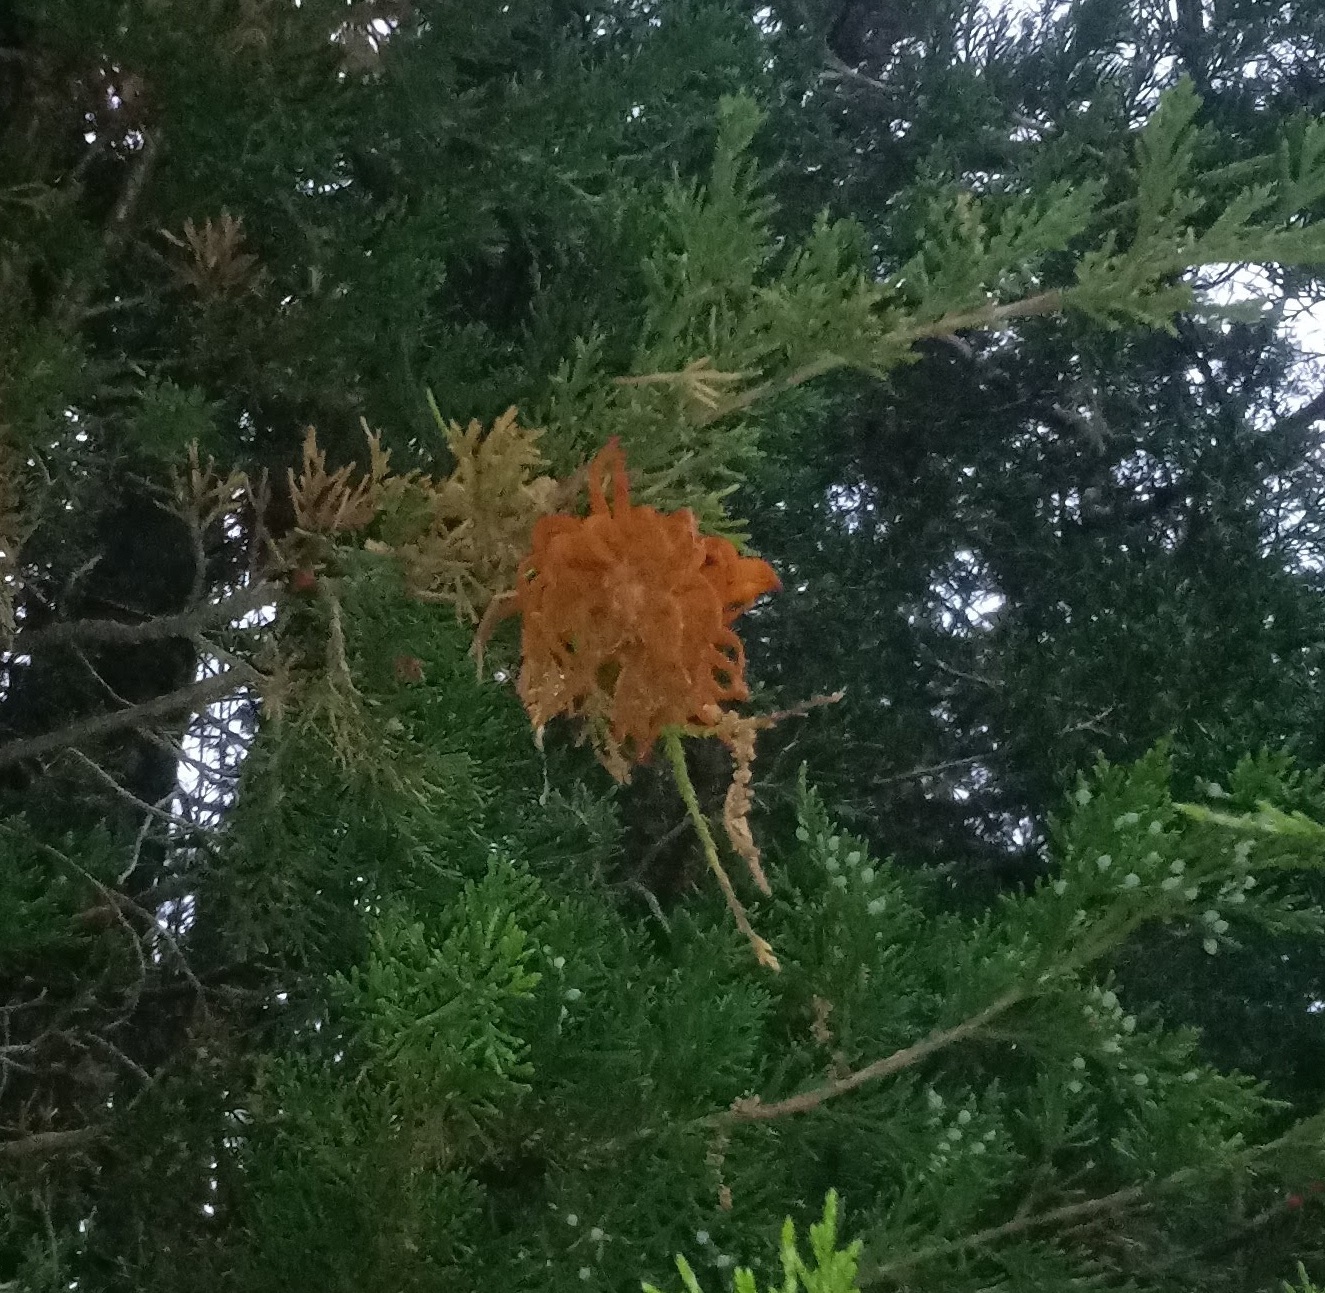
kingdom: Fungi
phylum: Basidiomycota
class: Pucciniomycetes
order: Pucciniales
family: Gymnosporangiaceae
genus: Gymnosporangium
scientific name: Gymnosporangium juniperi-virginianae
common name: Juniper-apple rust
